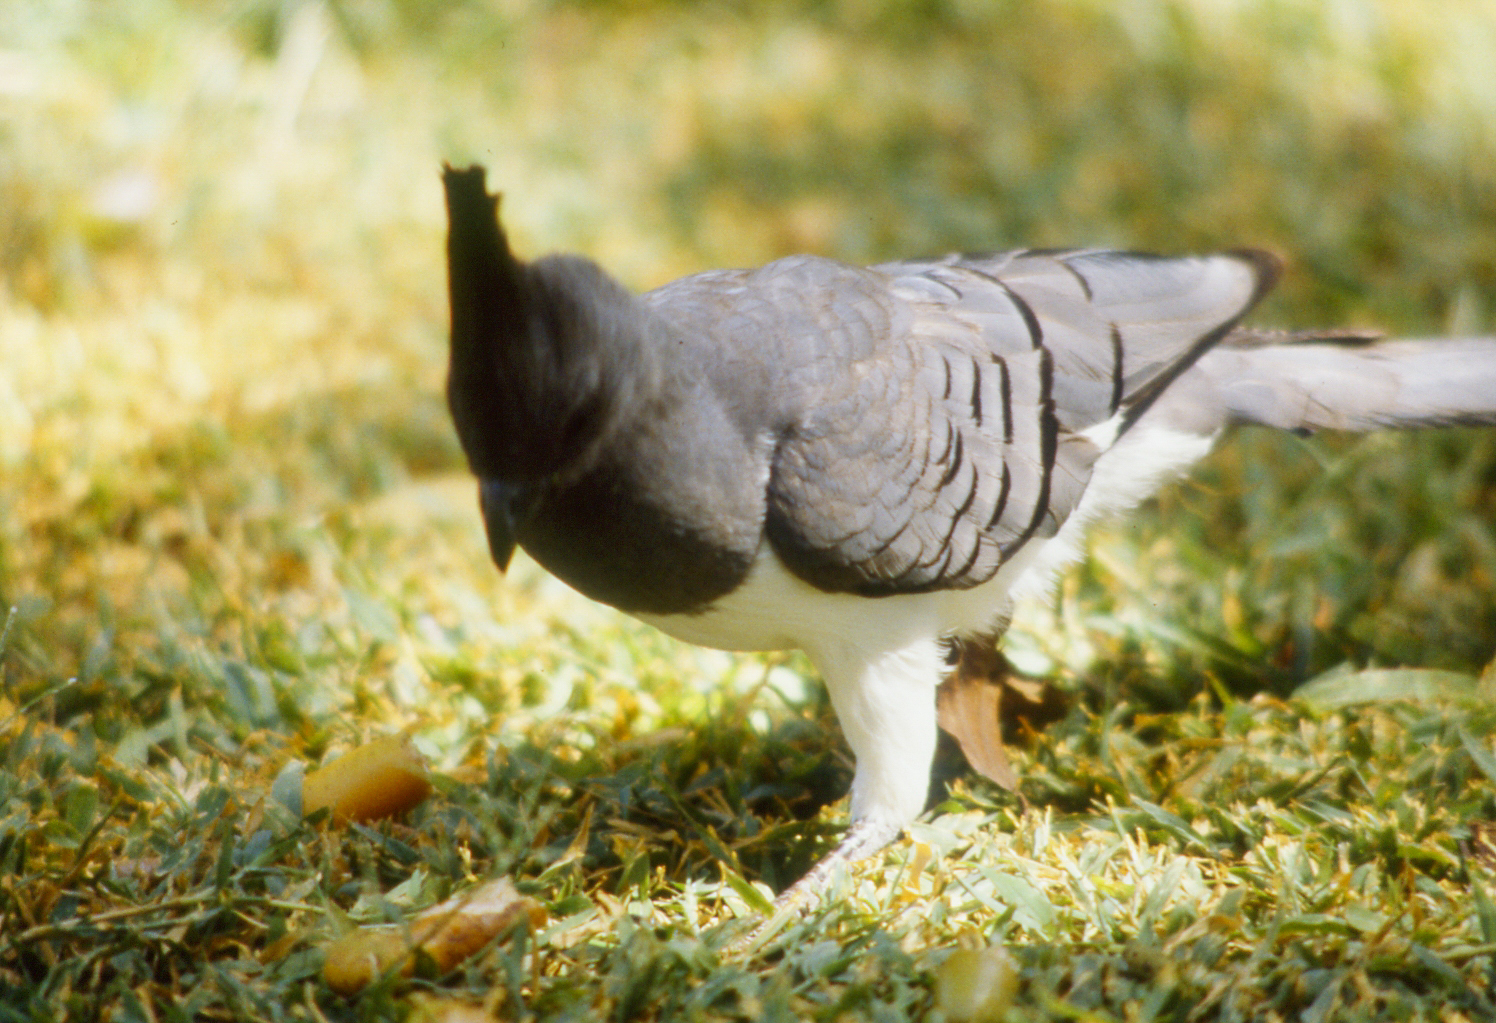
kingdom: Animalia
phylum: Chordata
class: Aves
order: Musophagiformes
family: Musophagidae
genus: Corythaixoides
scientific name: Corythaixoides leucogaster
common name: White-bellied go-away-bird
